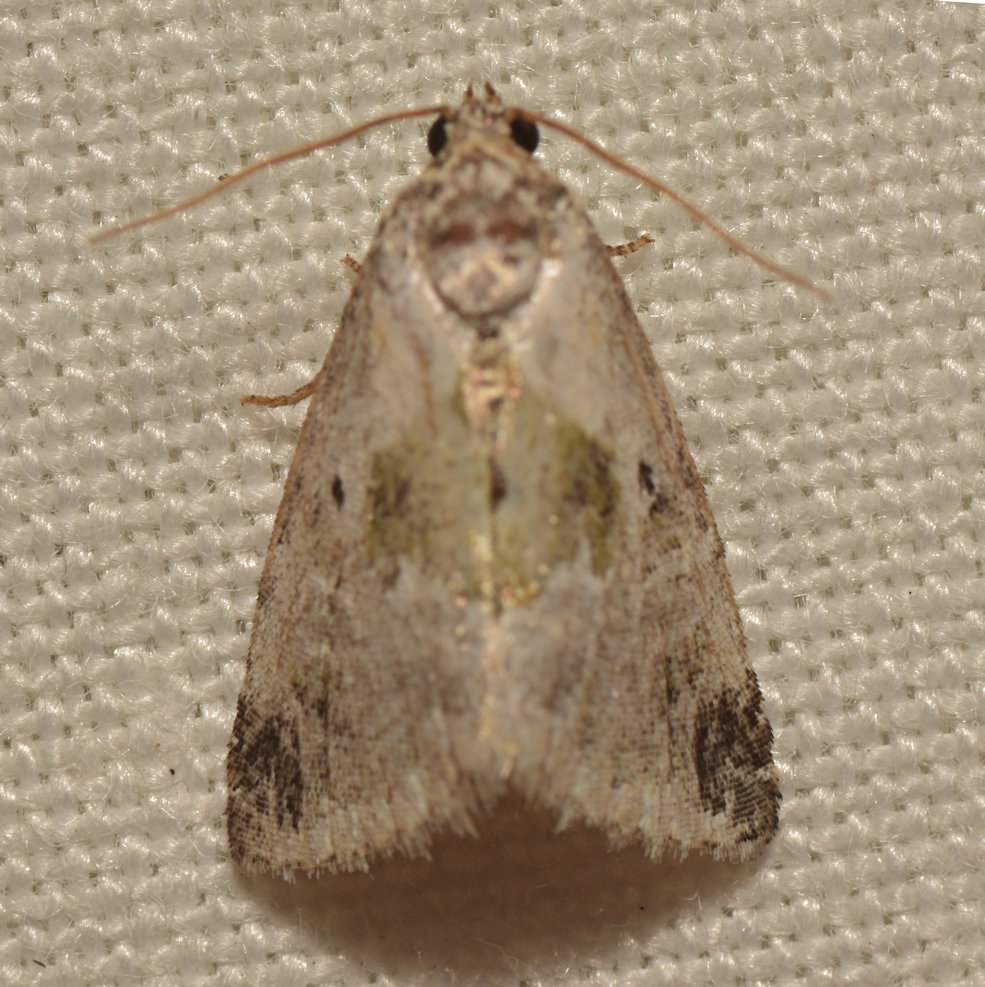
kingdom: Animalia
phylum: Arthropoda
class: Insecta
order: Lepidoptera
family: Noctuidae
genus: Maliattha
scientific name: Maliattha synochitis
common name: Black-dotted glyph
